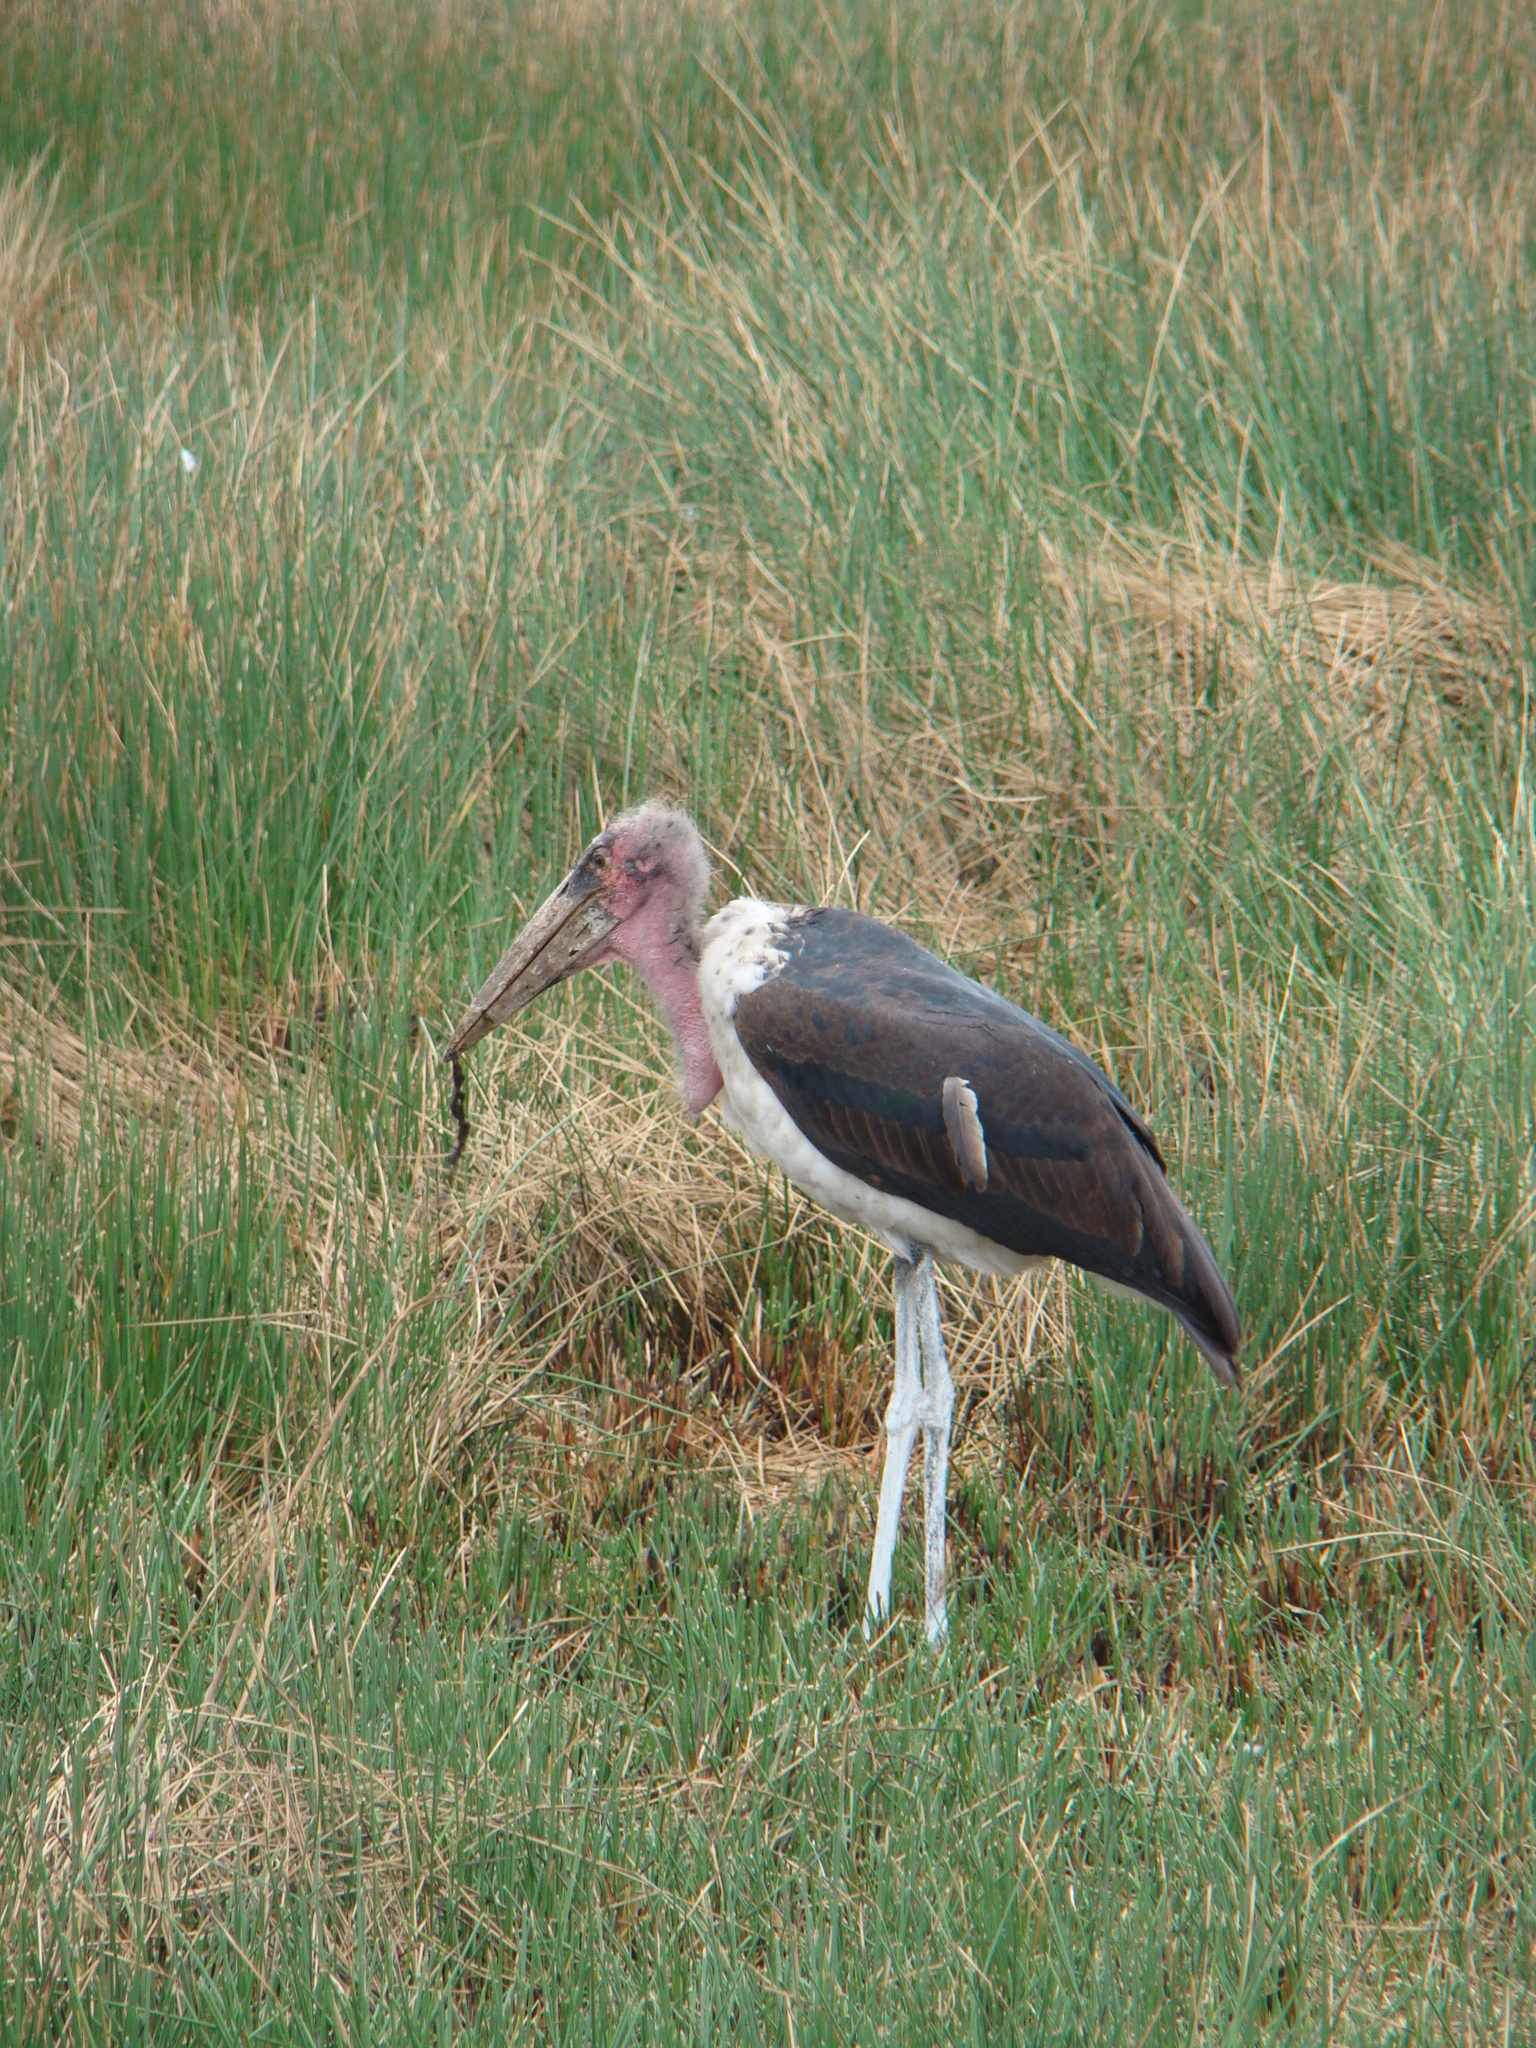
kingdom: Animalia
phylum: Chordata
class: Aves
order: Ciconiiformes
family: Ciconiidae
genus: Leptoptilos
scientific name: Leptoptilos crumenifer
